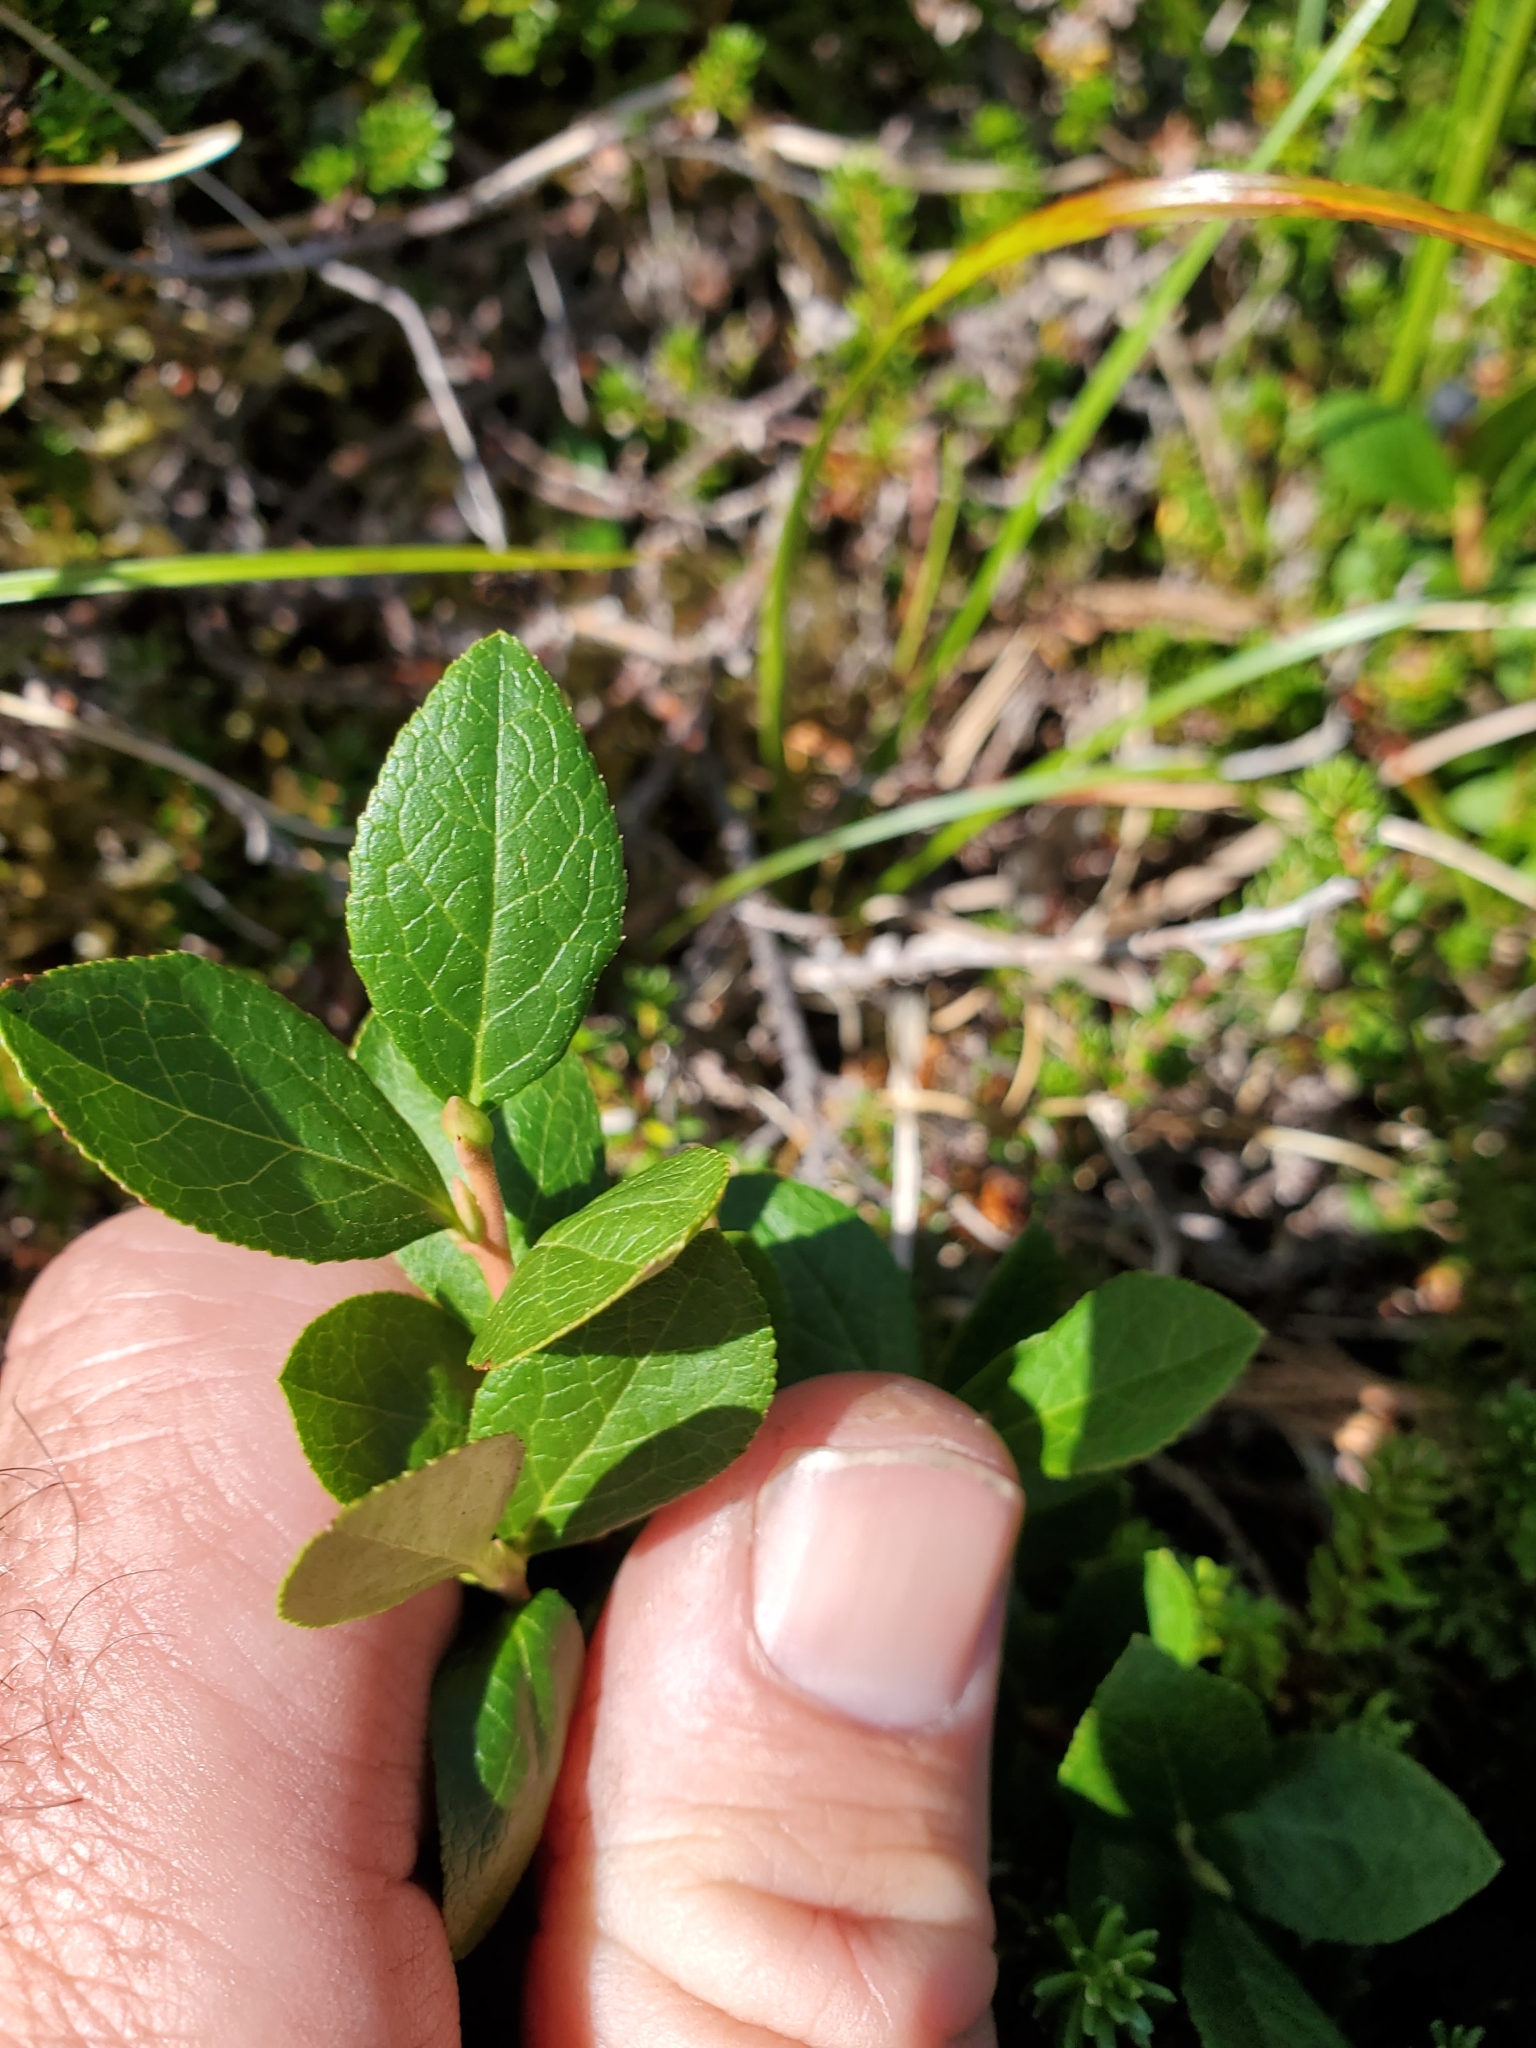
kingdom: Plantae
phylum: Tracheophyta
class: Magnoliopsida
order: Ericales
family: Ericaceae
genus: Gaultheria
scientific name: Gaultheria ovatifolia
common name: Oregon wintergreen
